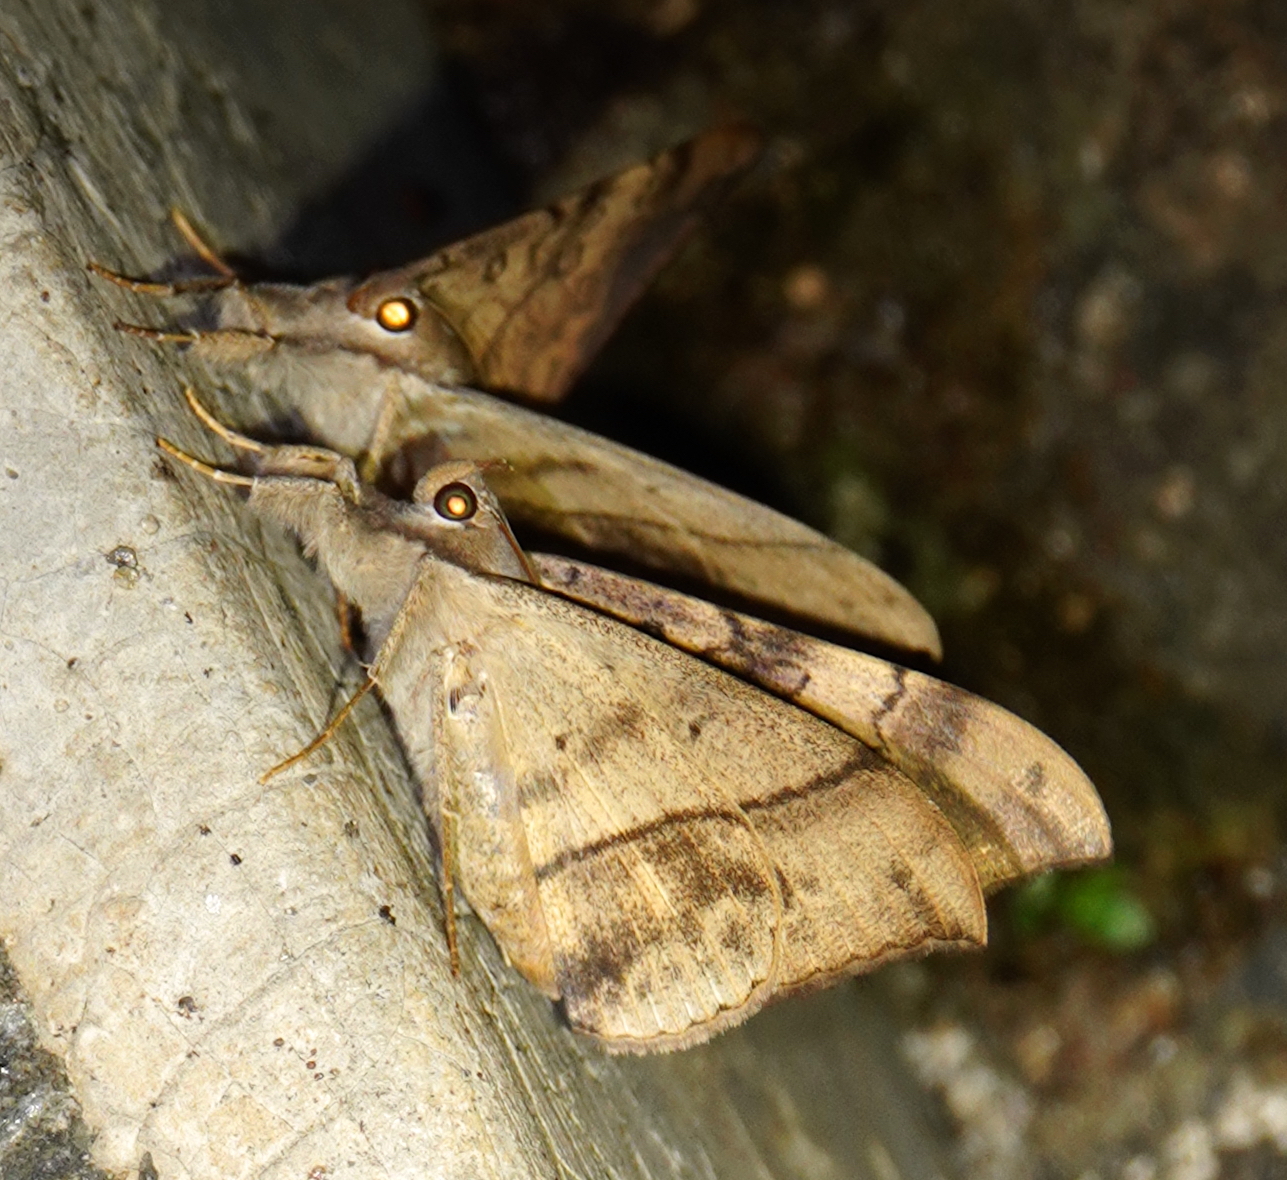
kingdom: Animalia
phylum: Arthropoda
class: Insecta
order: Lepidoptera
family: Erebidae
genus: Oxyodes
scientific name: Oxyodes scrobiculata
